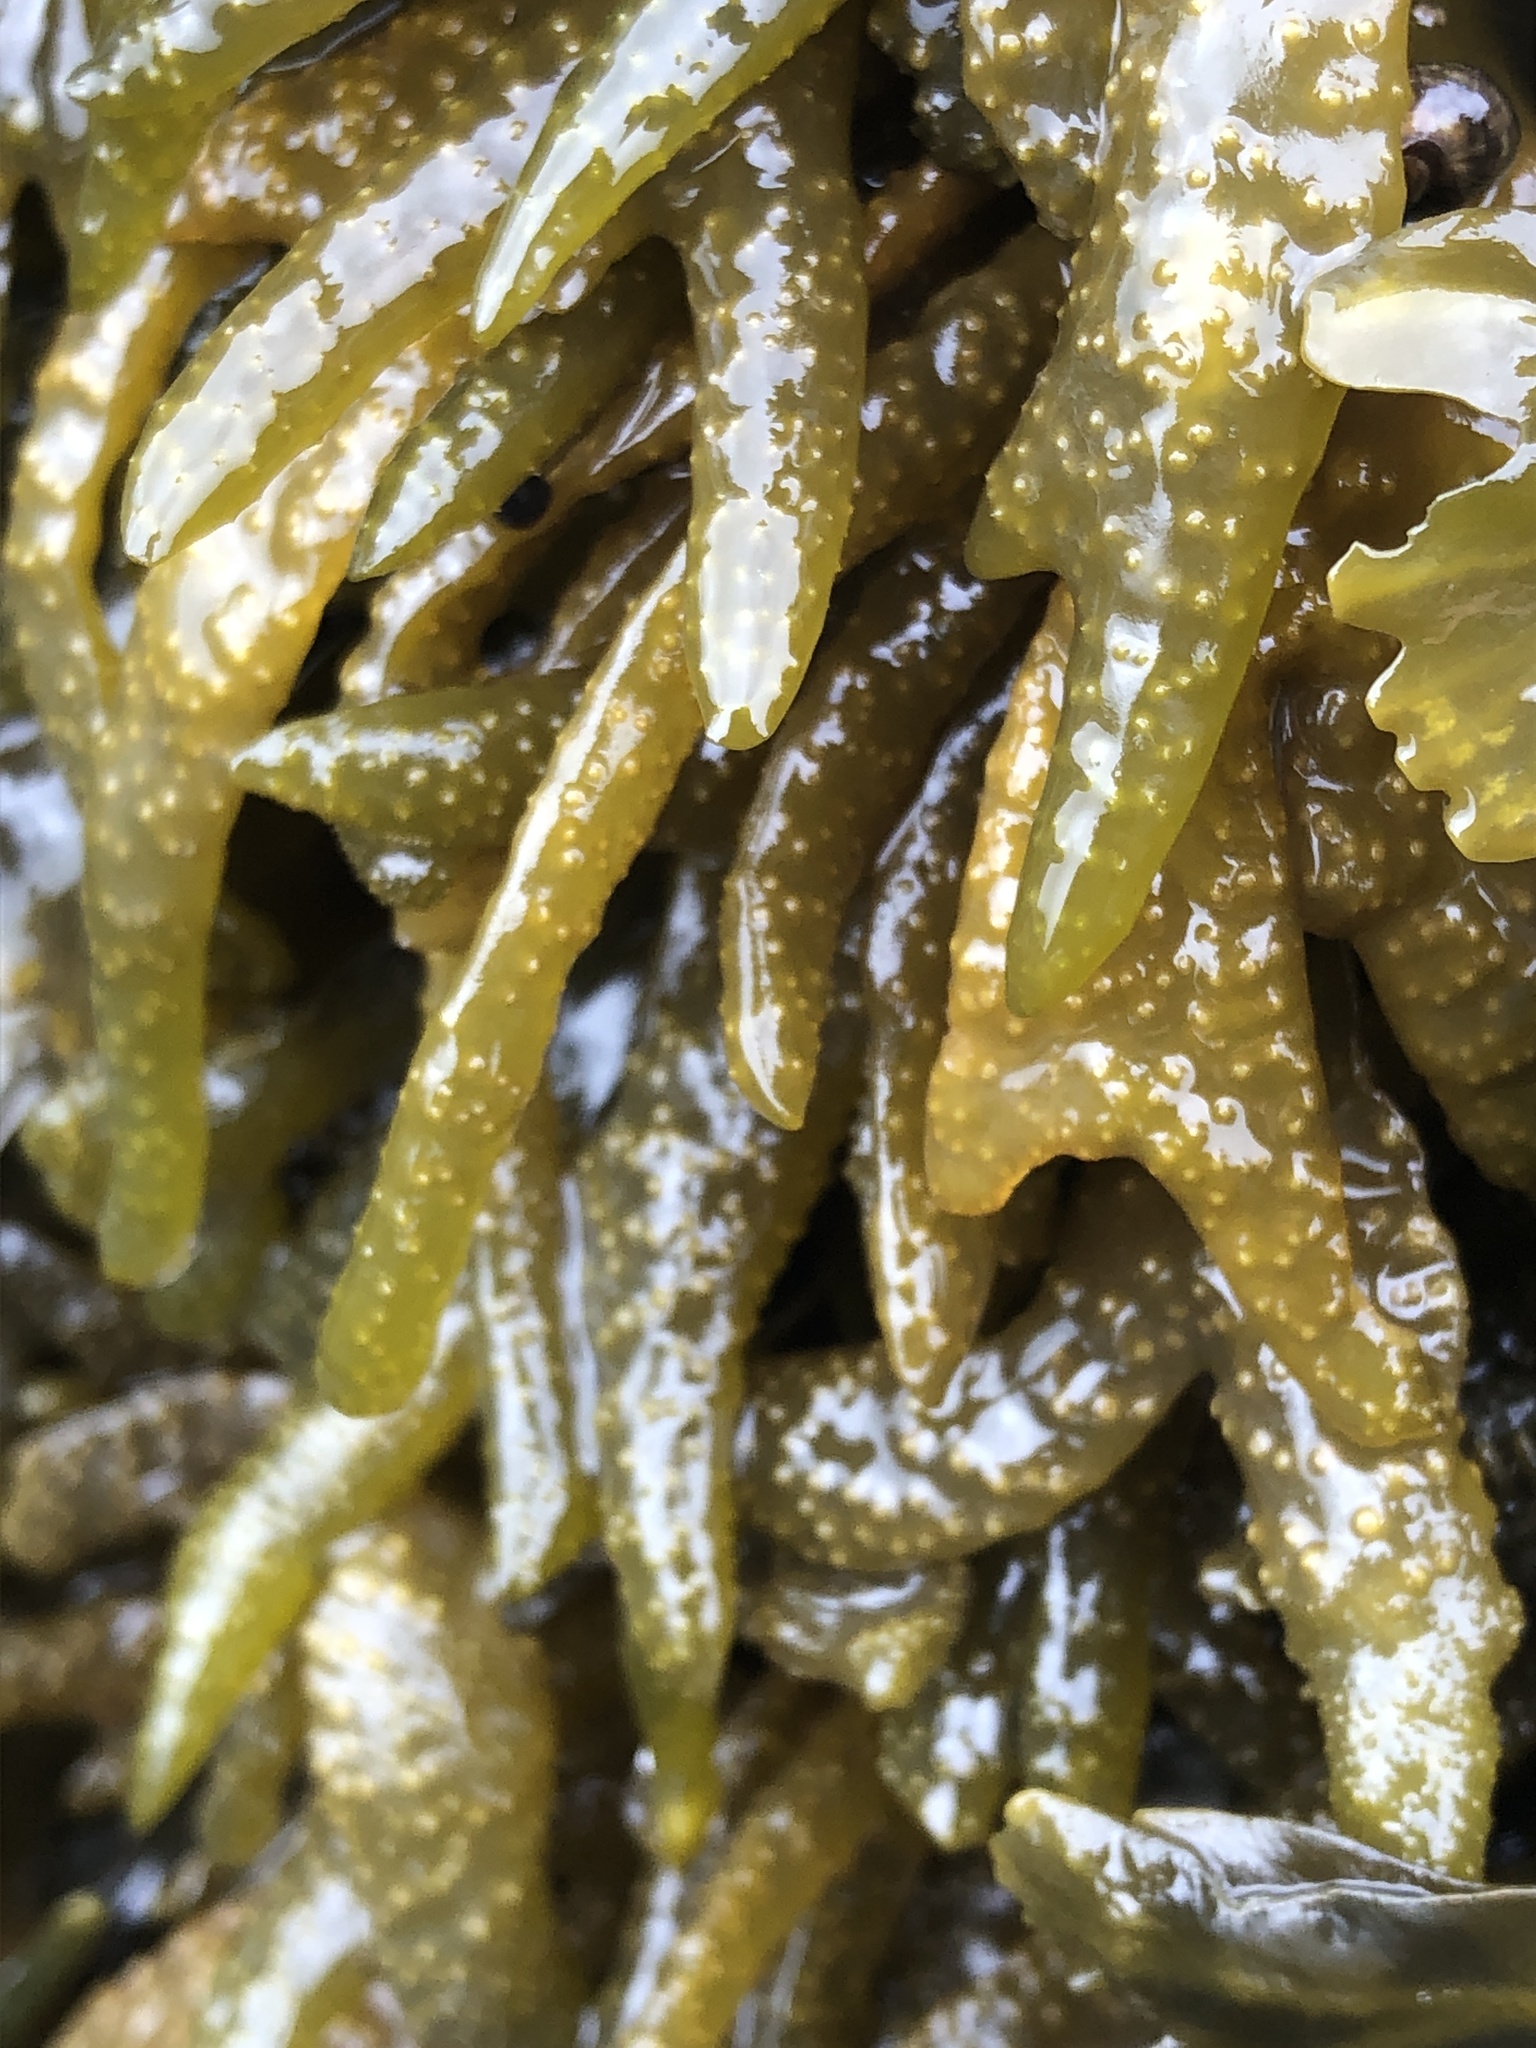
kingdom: Chromista
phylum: Ochrophyta
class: Phaeophyceae
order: Fucales
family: Fucaceae
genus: Fucus
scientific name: Fucus evanescens
